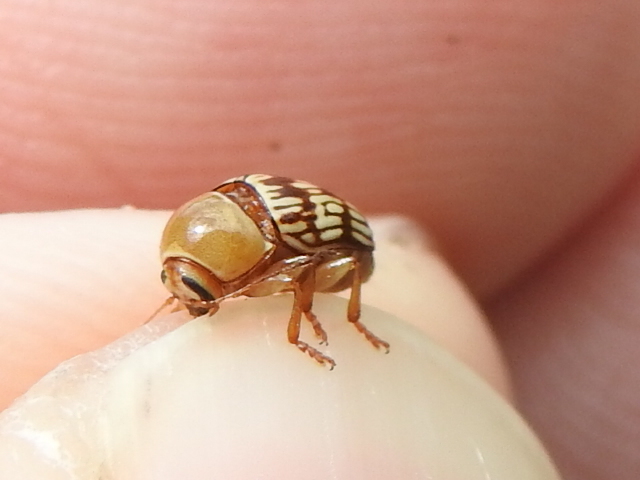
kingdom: Animalia
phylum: Arthropoda
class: Insecta
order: Coleoptera
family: Chrysomelidae
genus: Cryptocephalus
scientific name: Cryptocephalus fulguratus
